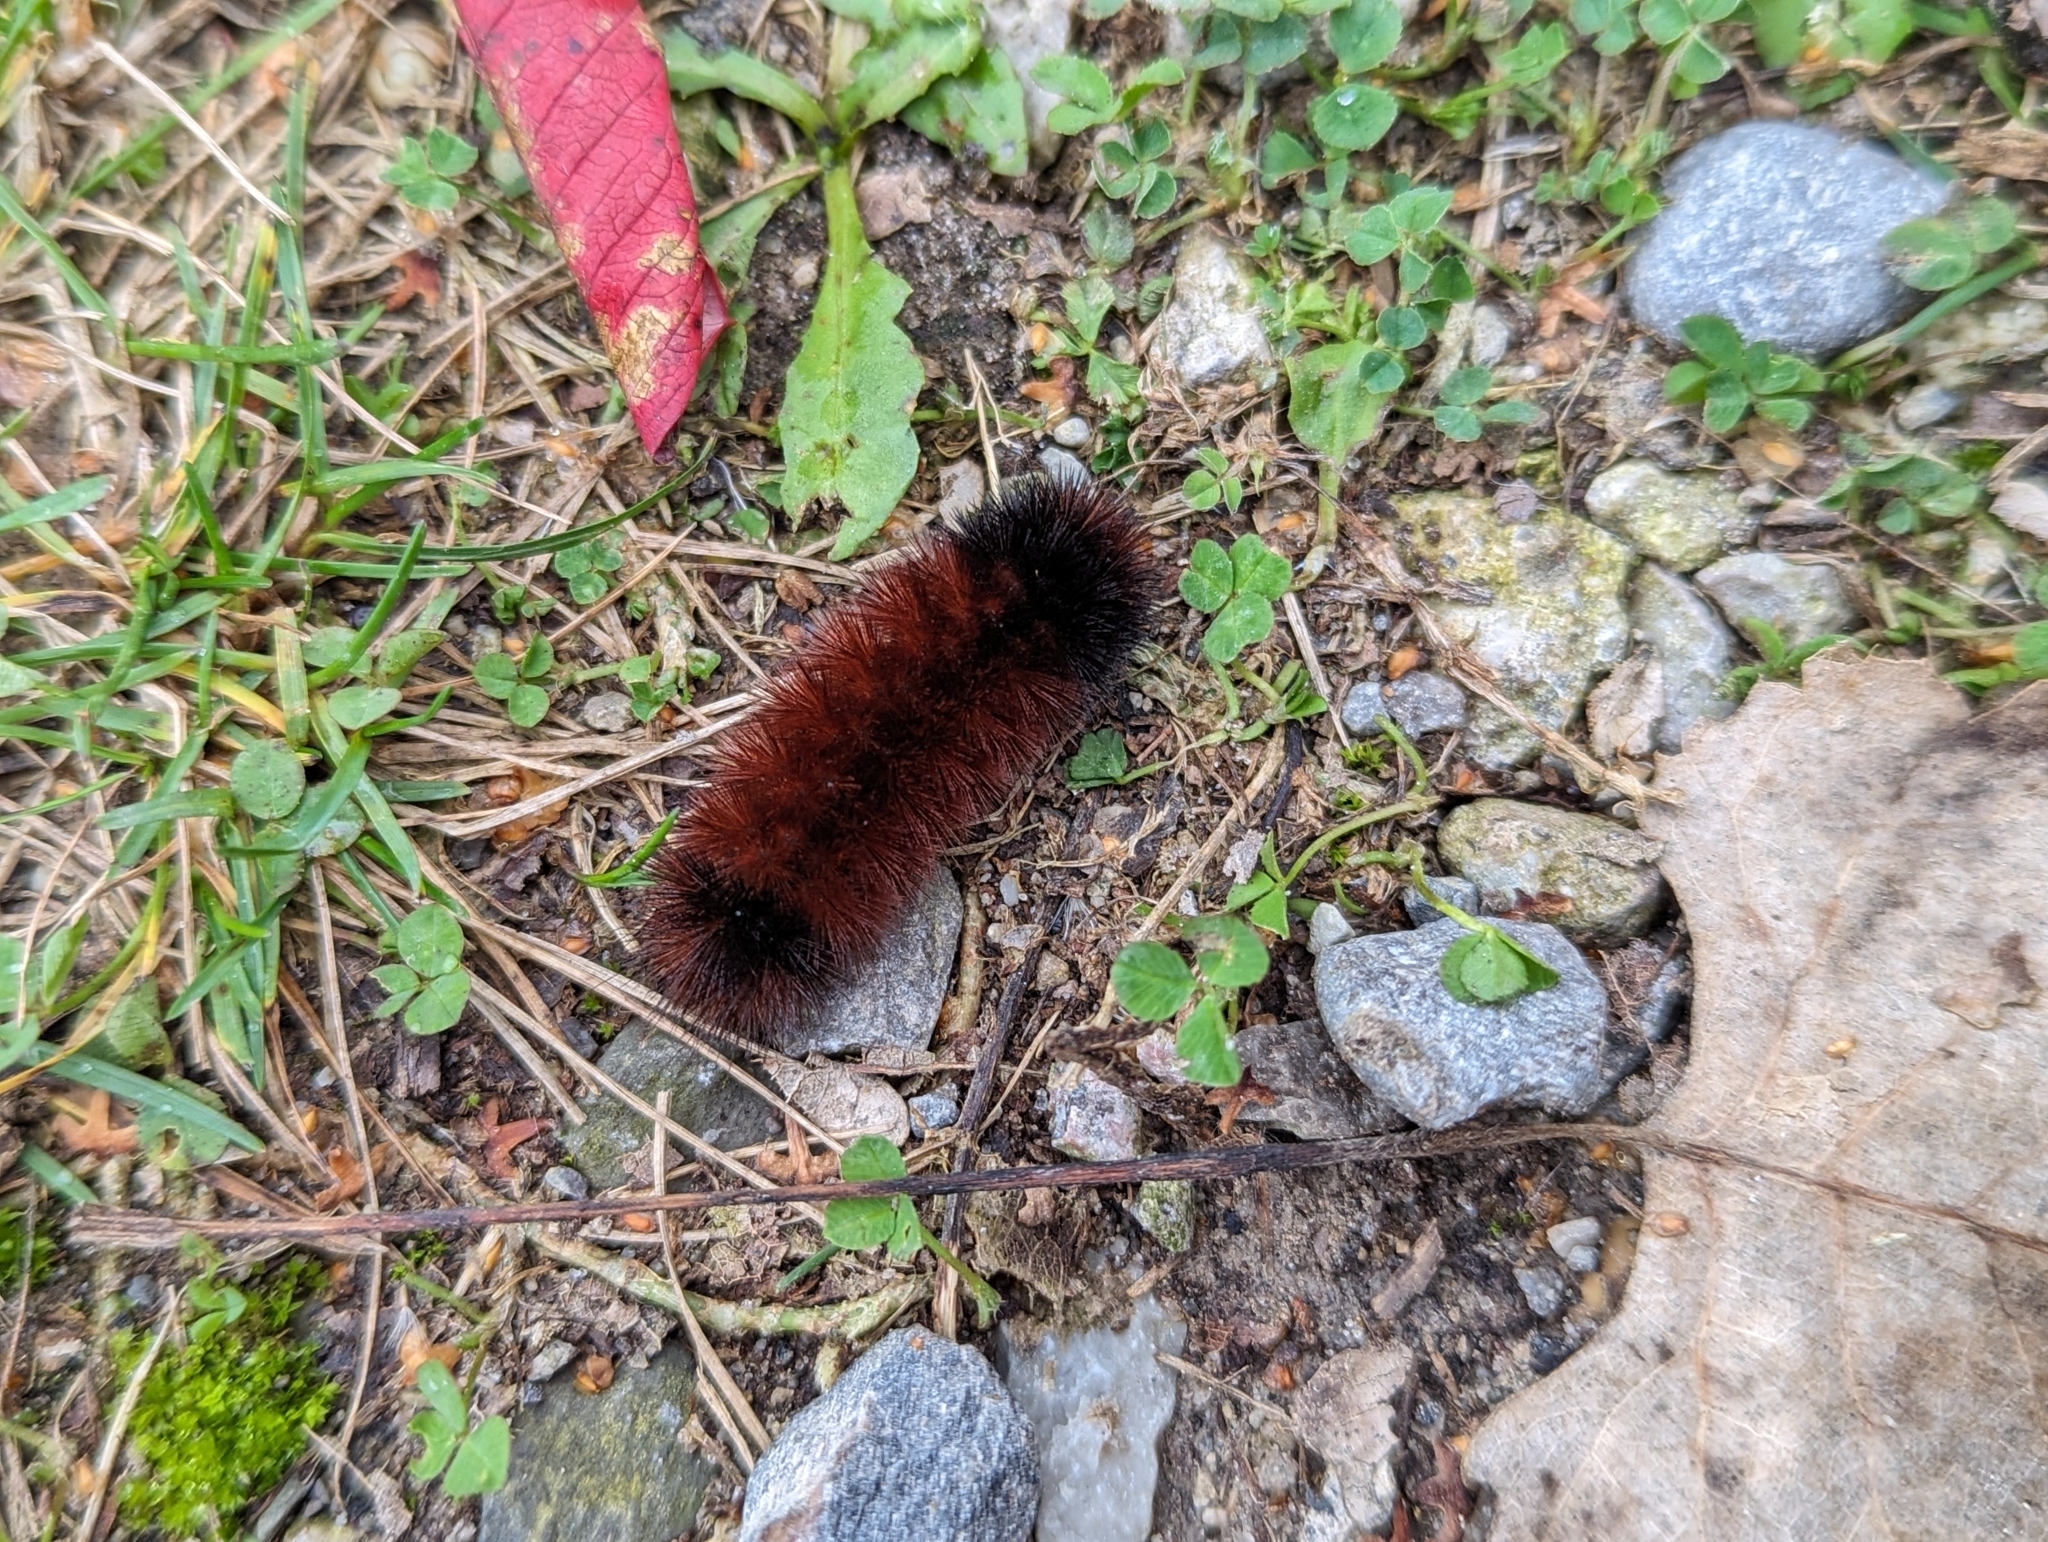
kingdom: Animalia
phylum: Arthropoda
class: Insecta
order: Lepidoptera
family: Erebidae
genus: Pyrrharctia
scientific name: Pyrrharctia isabella
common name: Isabella tiger moth
